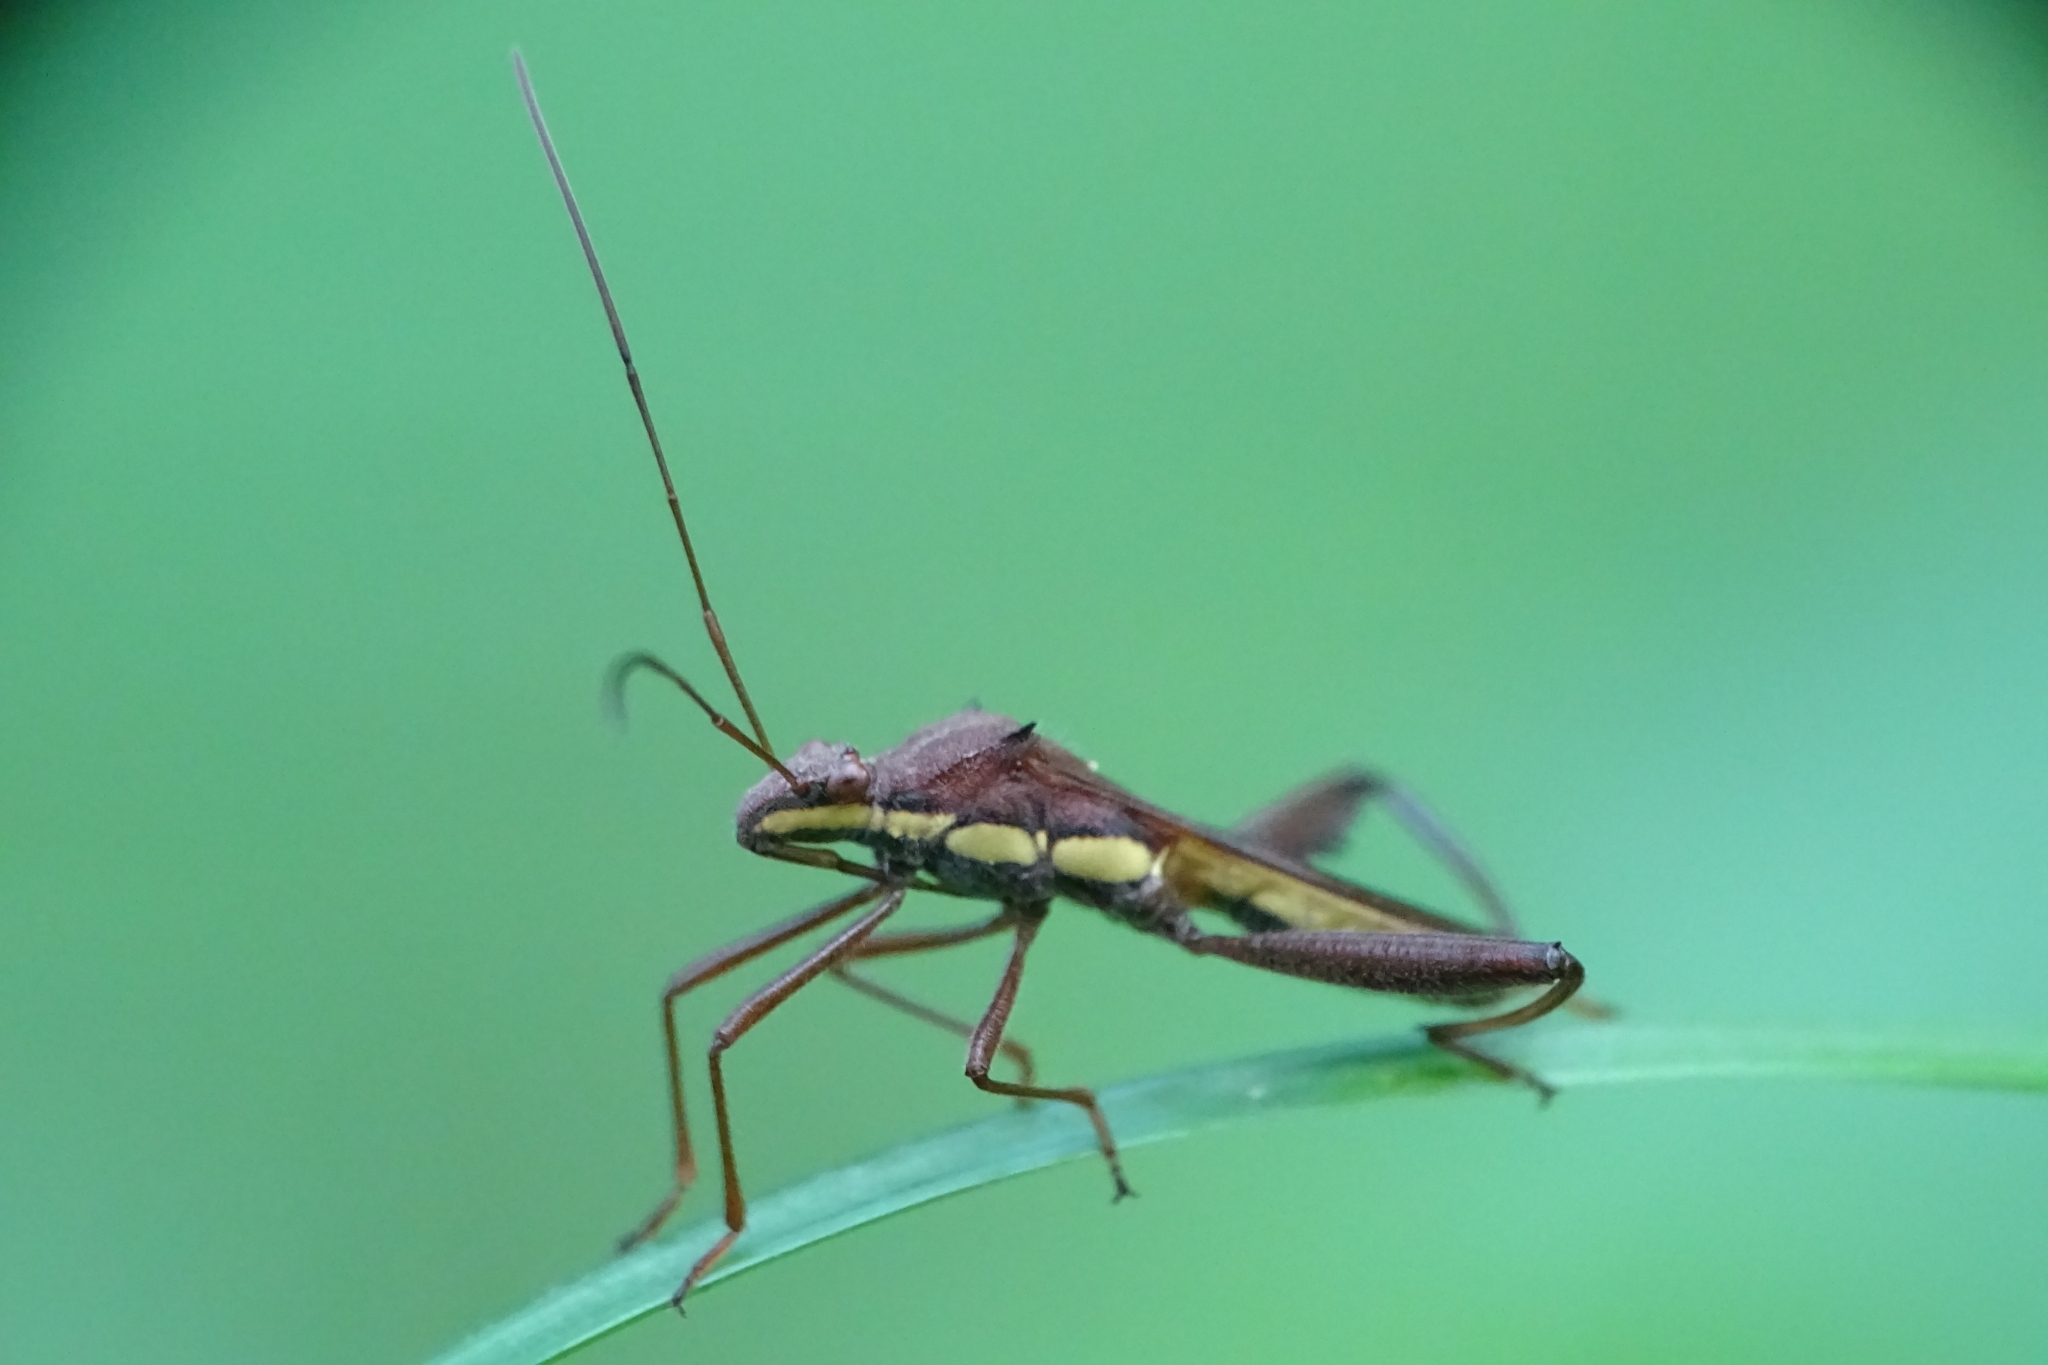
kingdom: Animalia
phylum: Arthropoda
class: Insecta
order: Hemiptera
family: Alydidae
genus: Riptortus
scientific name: Riptortus linearis
